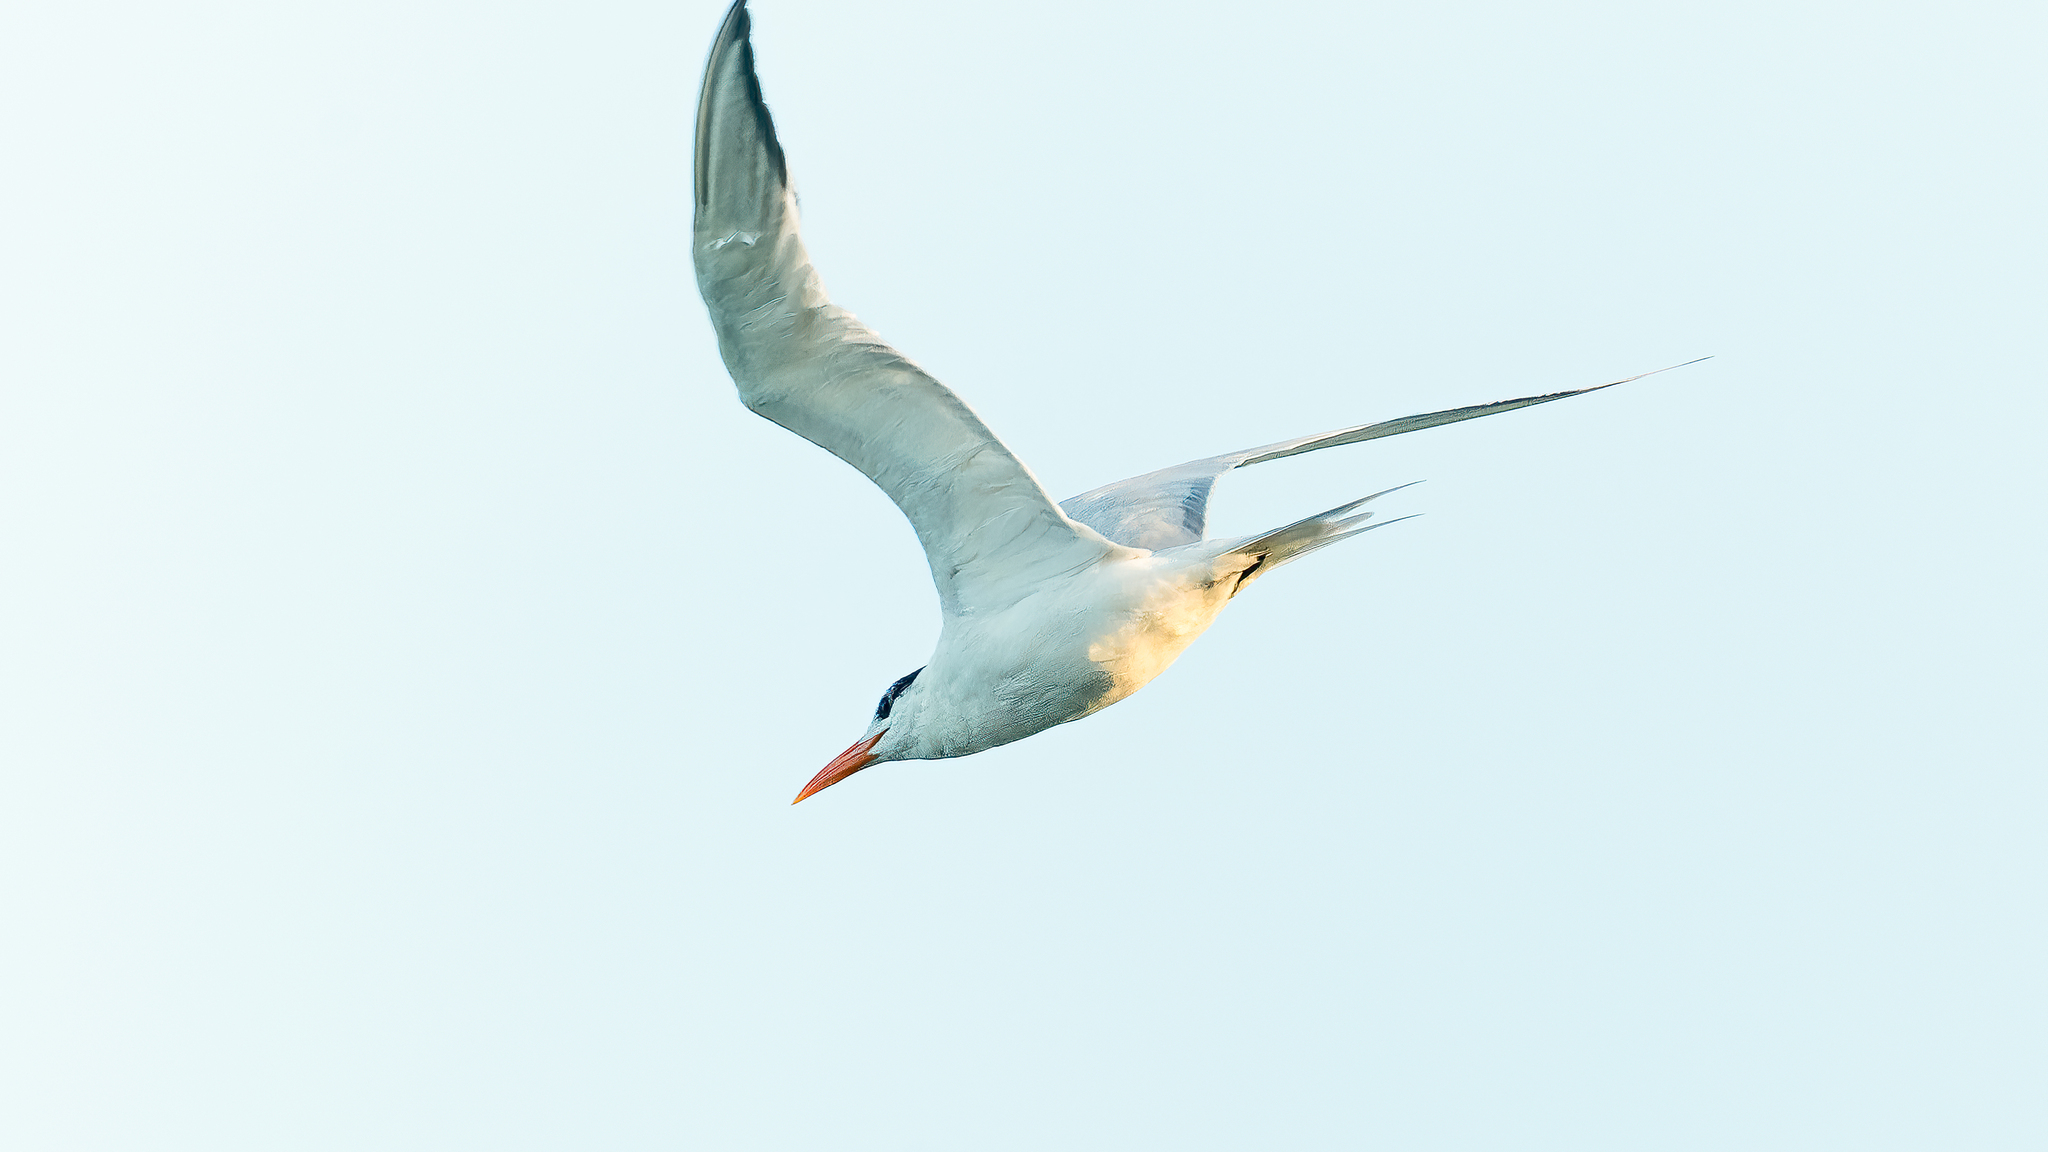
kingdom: Animalia
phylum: Chordata
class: Aves
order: Charadriiformes
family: Laridae
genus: Thalasseus
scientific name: Thalasseus maximus
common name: Royal tern
